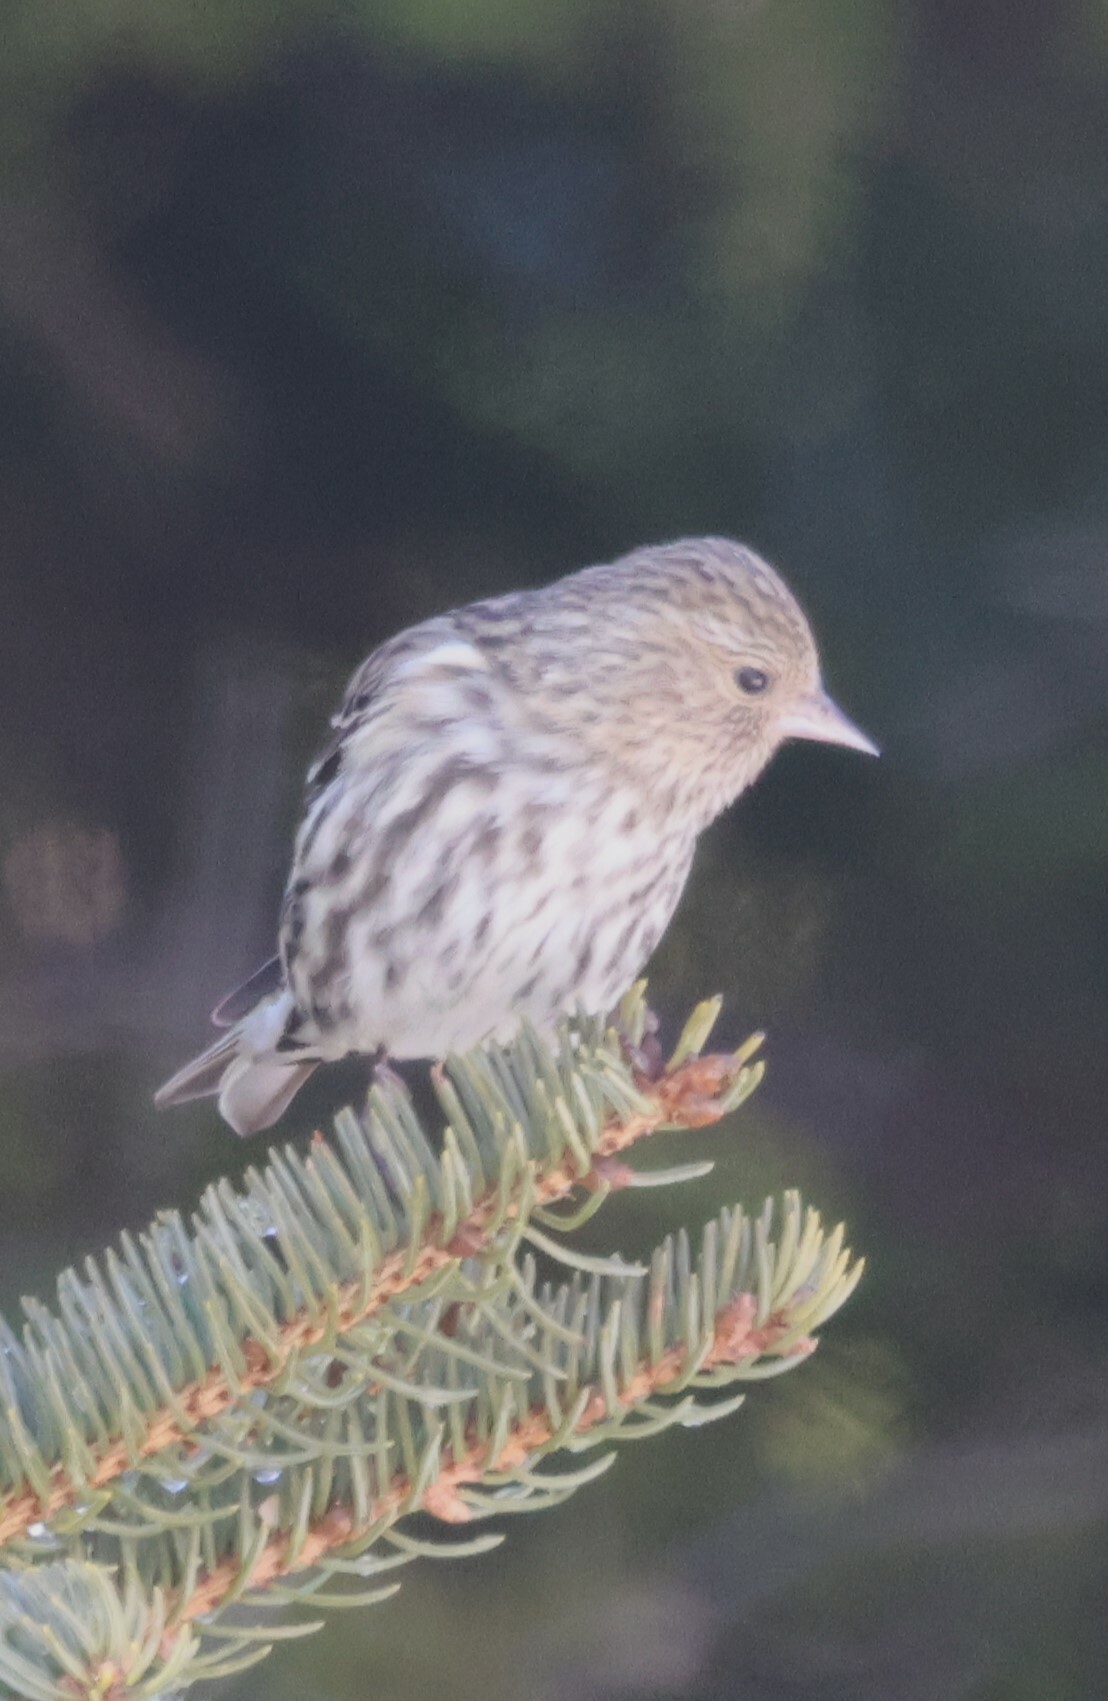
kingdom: Animalia
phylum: Chordata
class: Aves
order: Passeriformes
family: Fringillidae
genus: Spinus
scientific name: Spinus pinus
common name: Pine siskin
